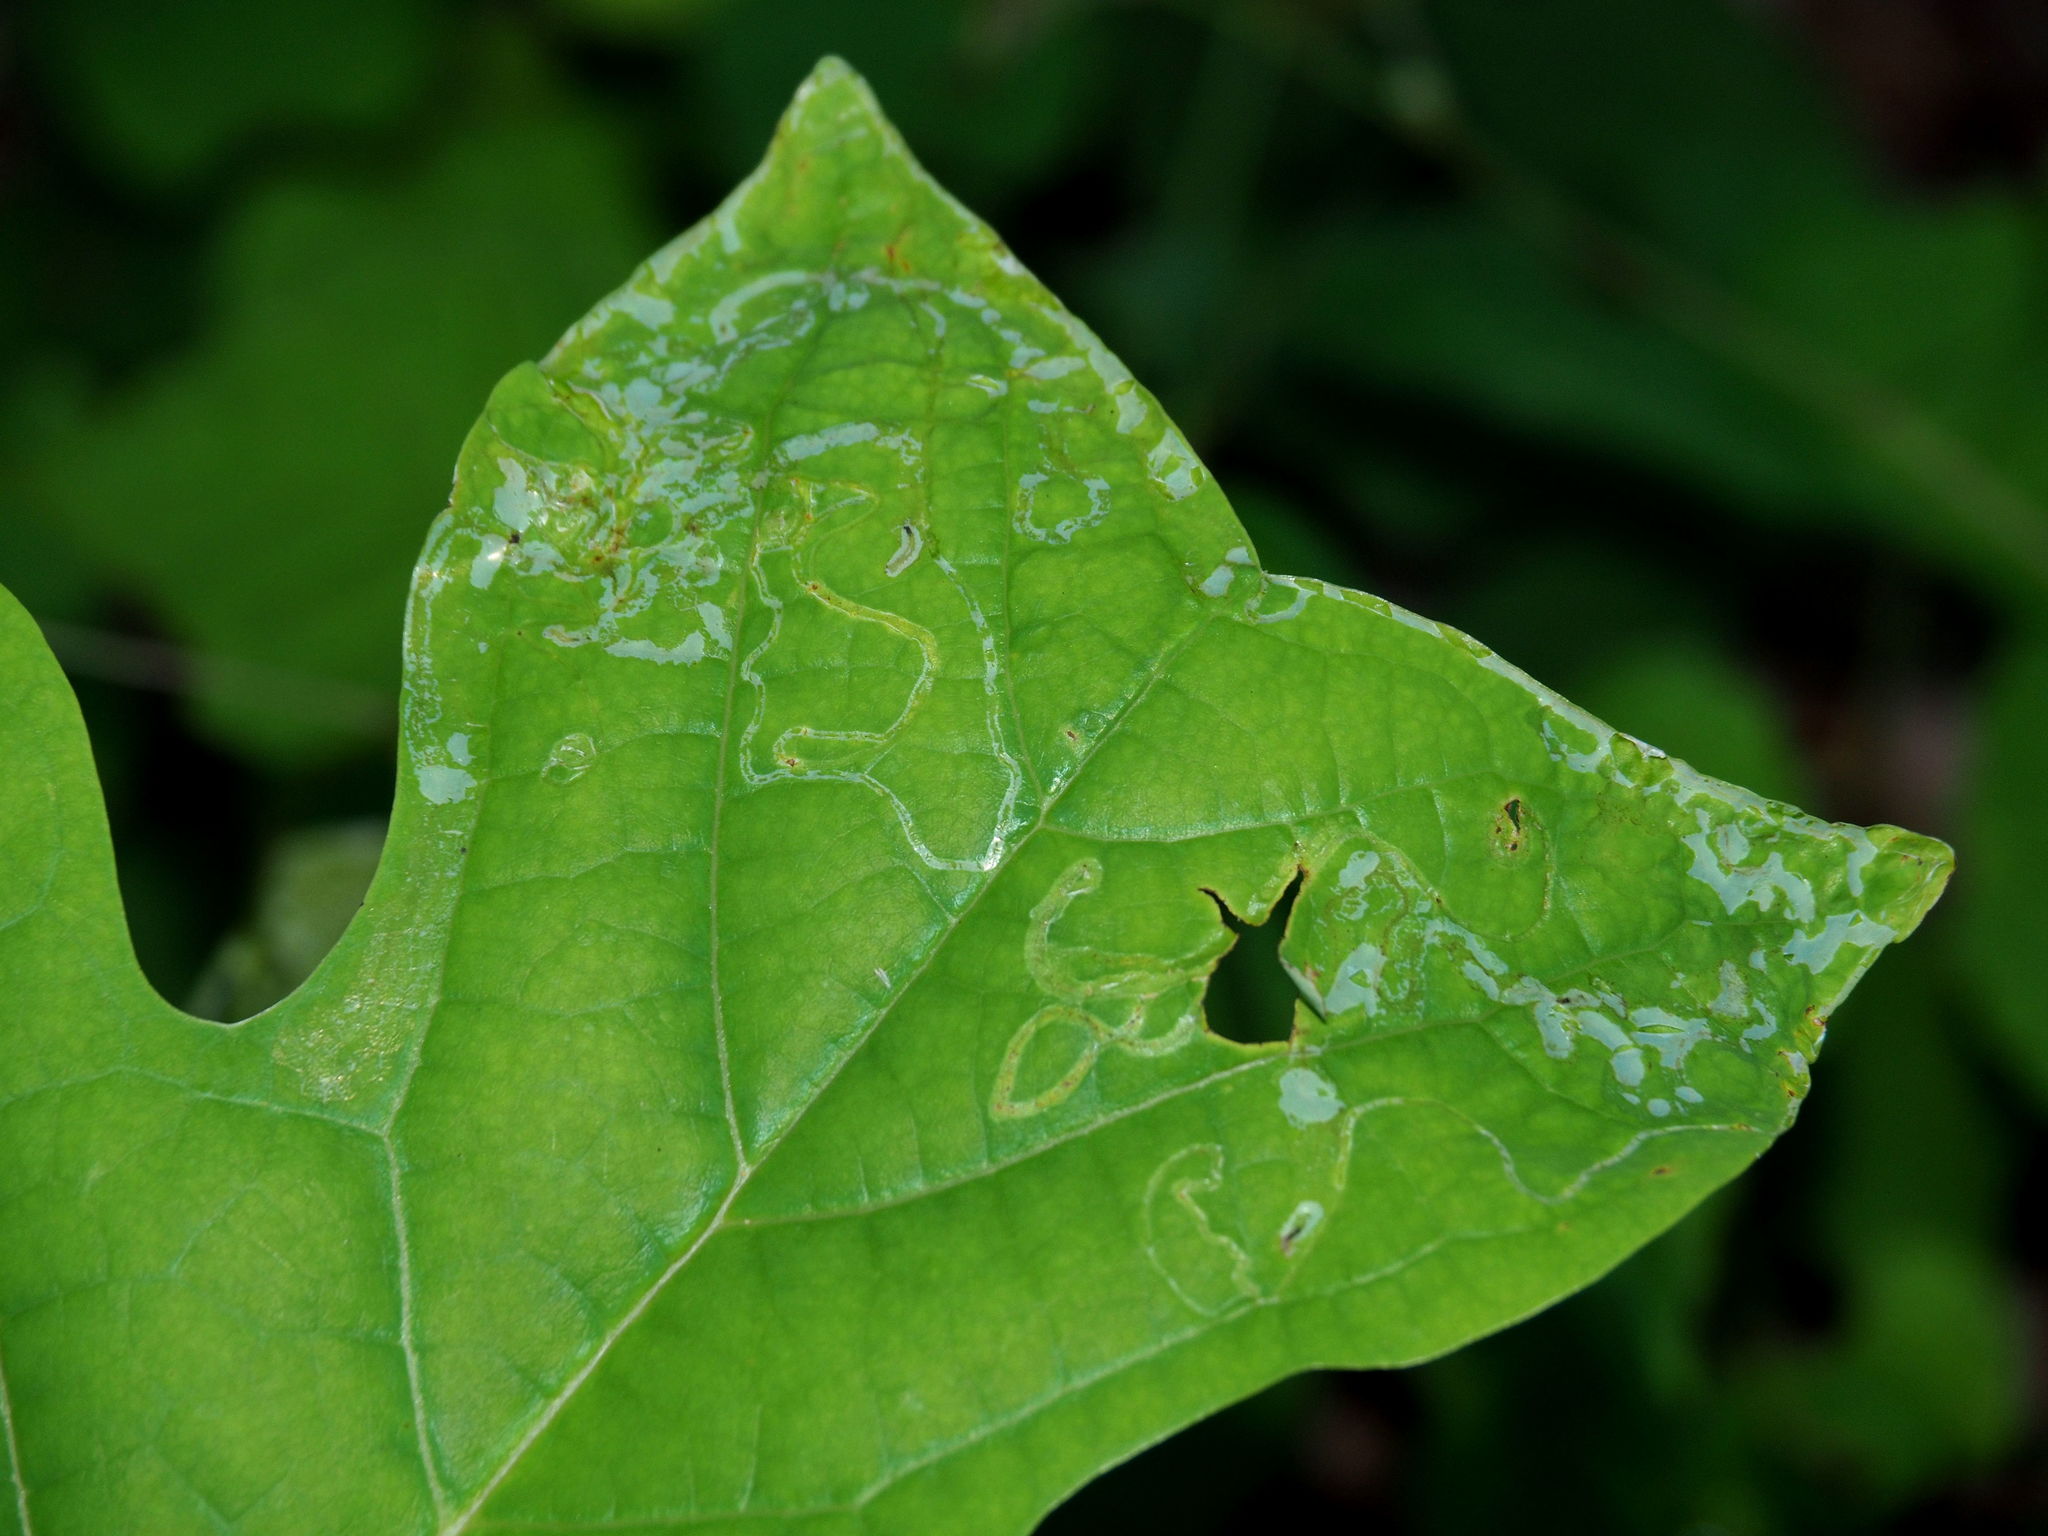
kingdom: Animalia
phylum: Arthropoda
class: Insecta
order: Lepidoptera
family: Gracillariidae
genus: Phyllocnistis
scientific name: Phyllocnistis liriodendronella
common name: Tulip tree leaf miner
